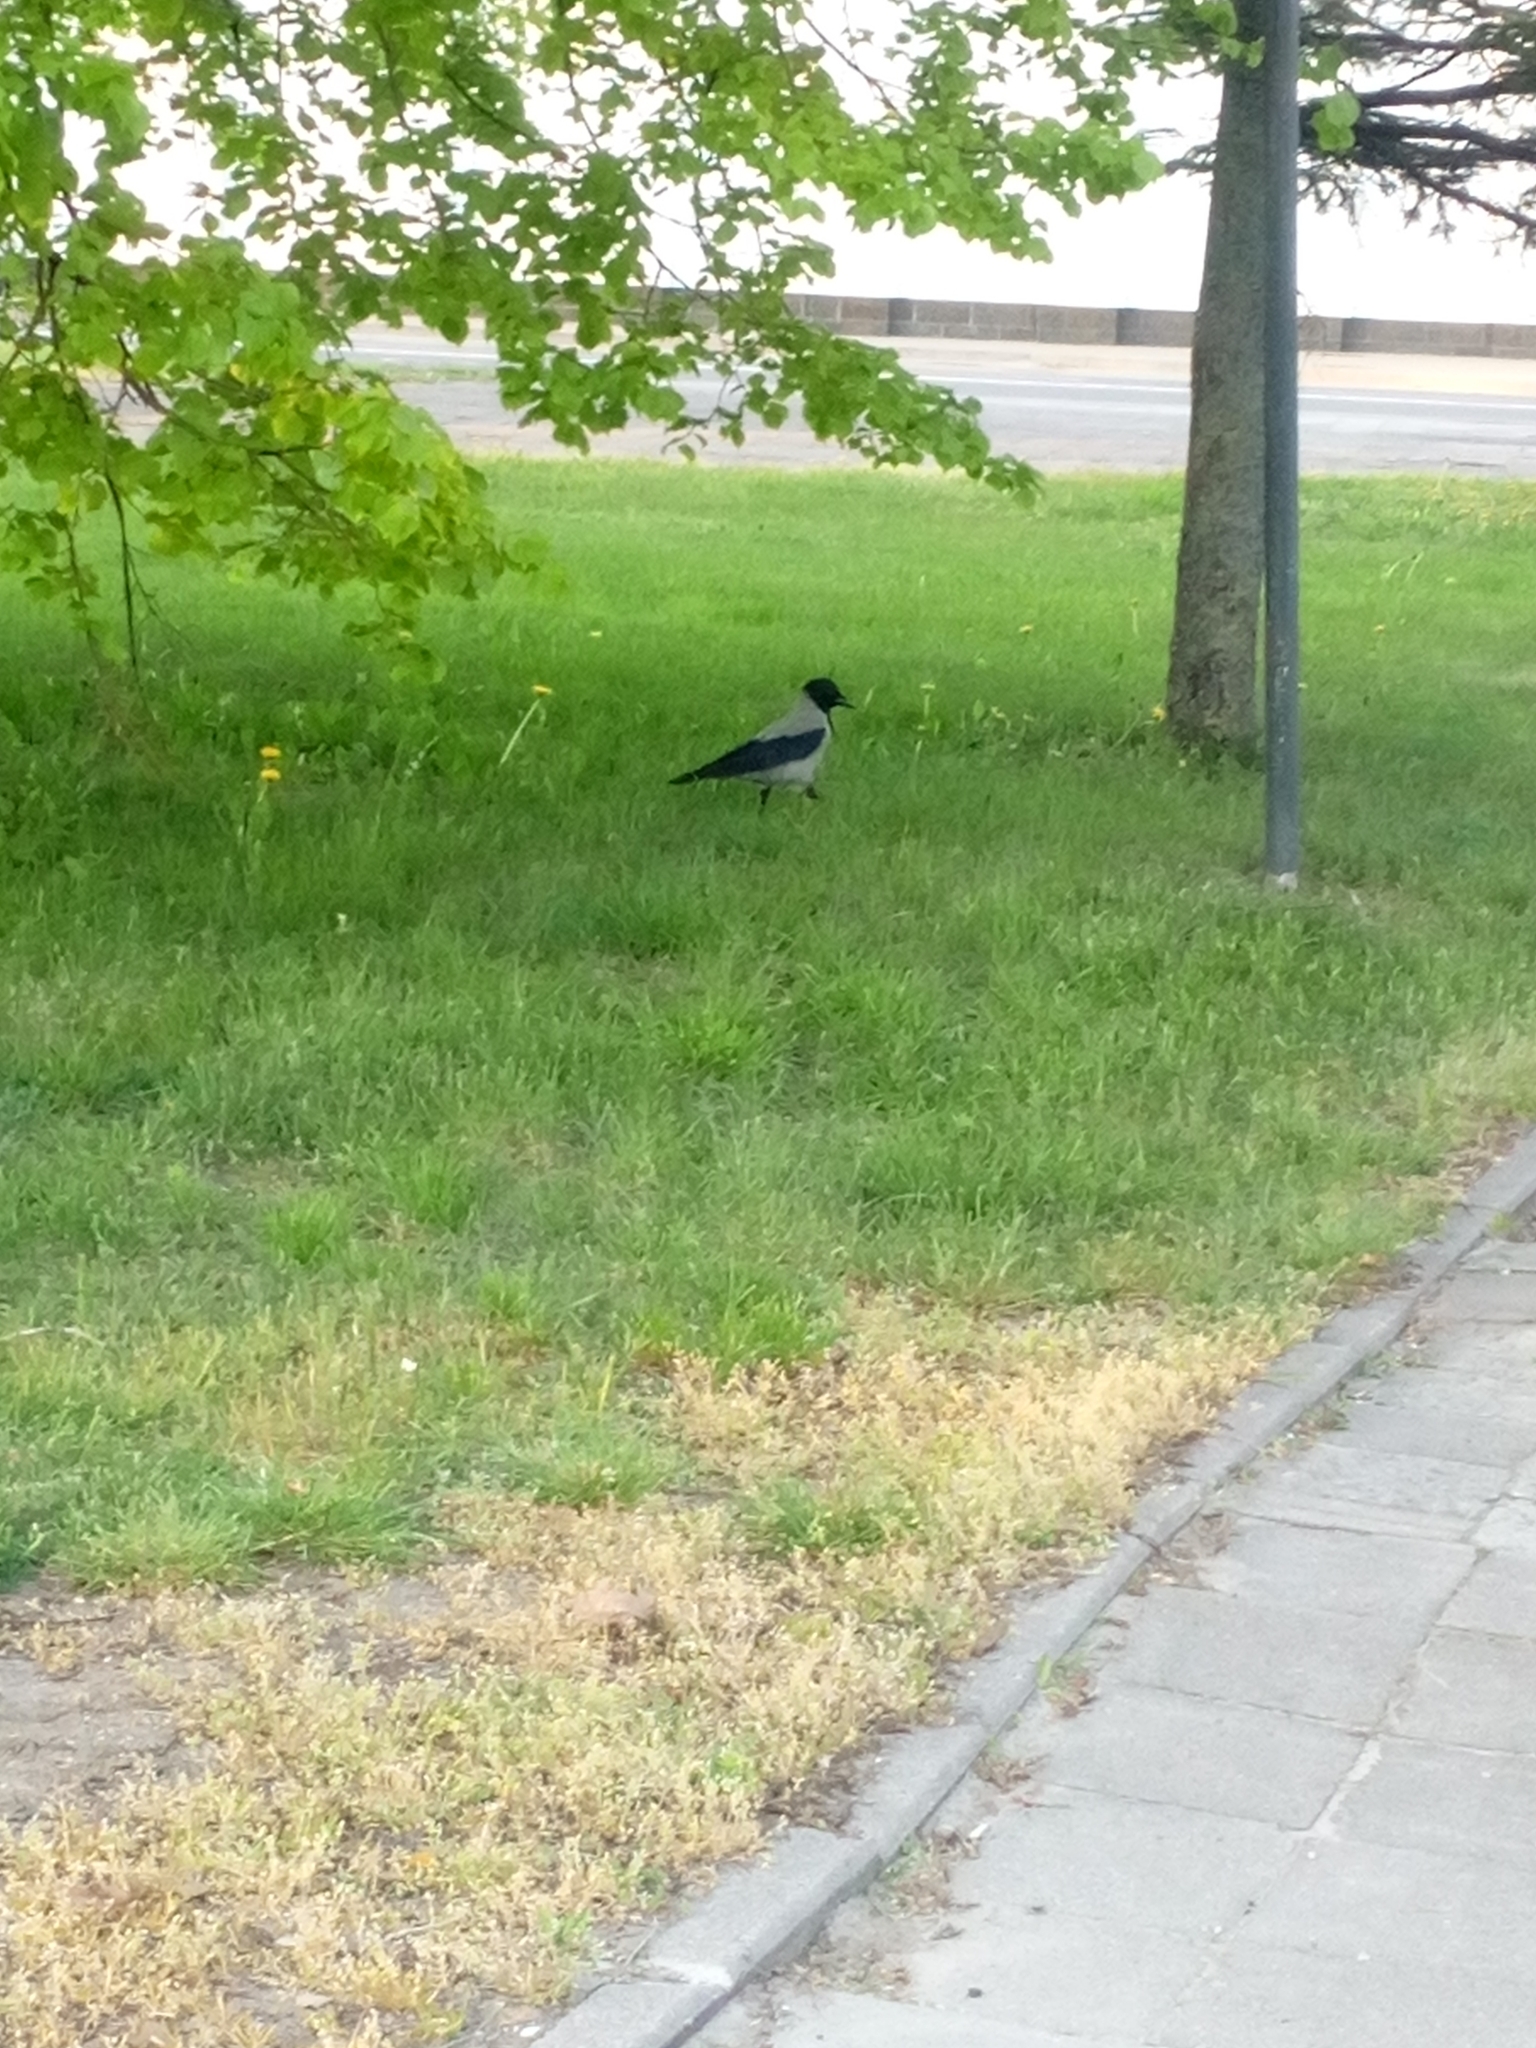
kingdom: Animalia
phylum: Chordata
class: Aves
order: Passeriformes
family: Corvidae
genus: Corvus
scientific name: Corvus cornix
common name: Hooded crow
